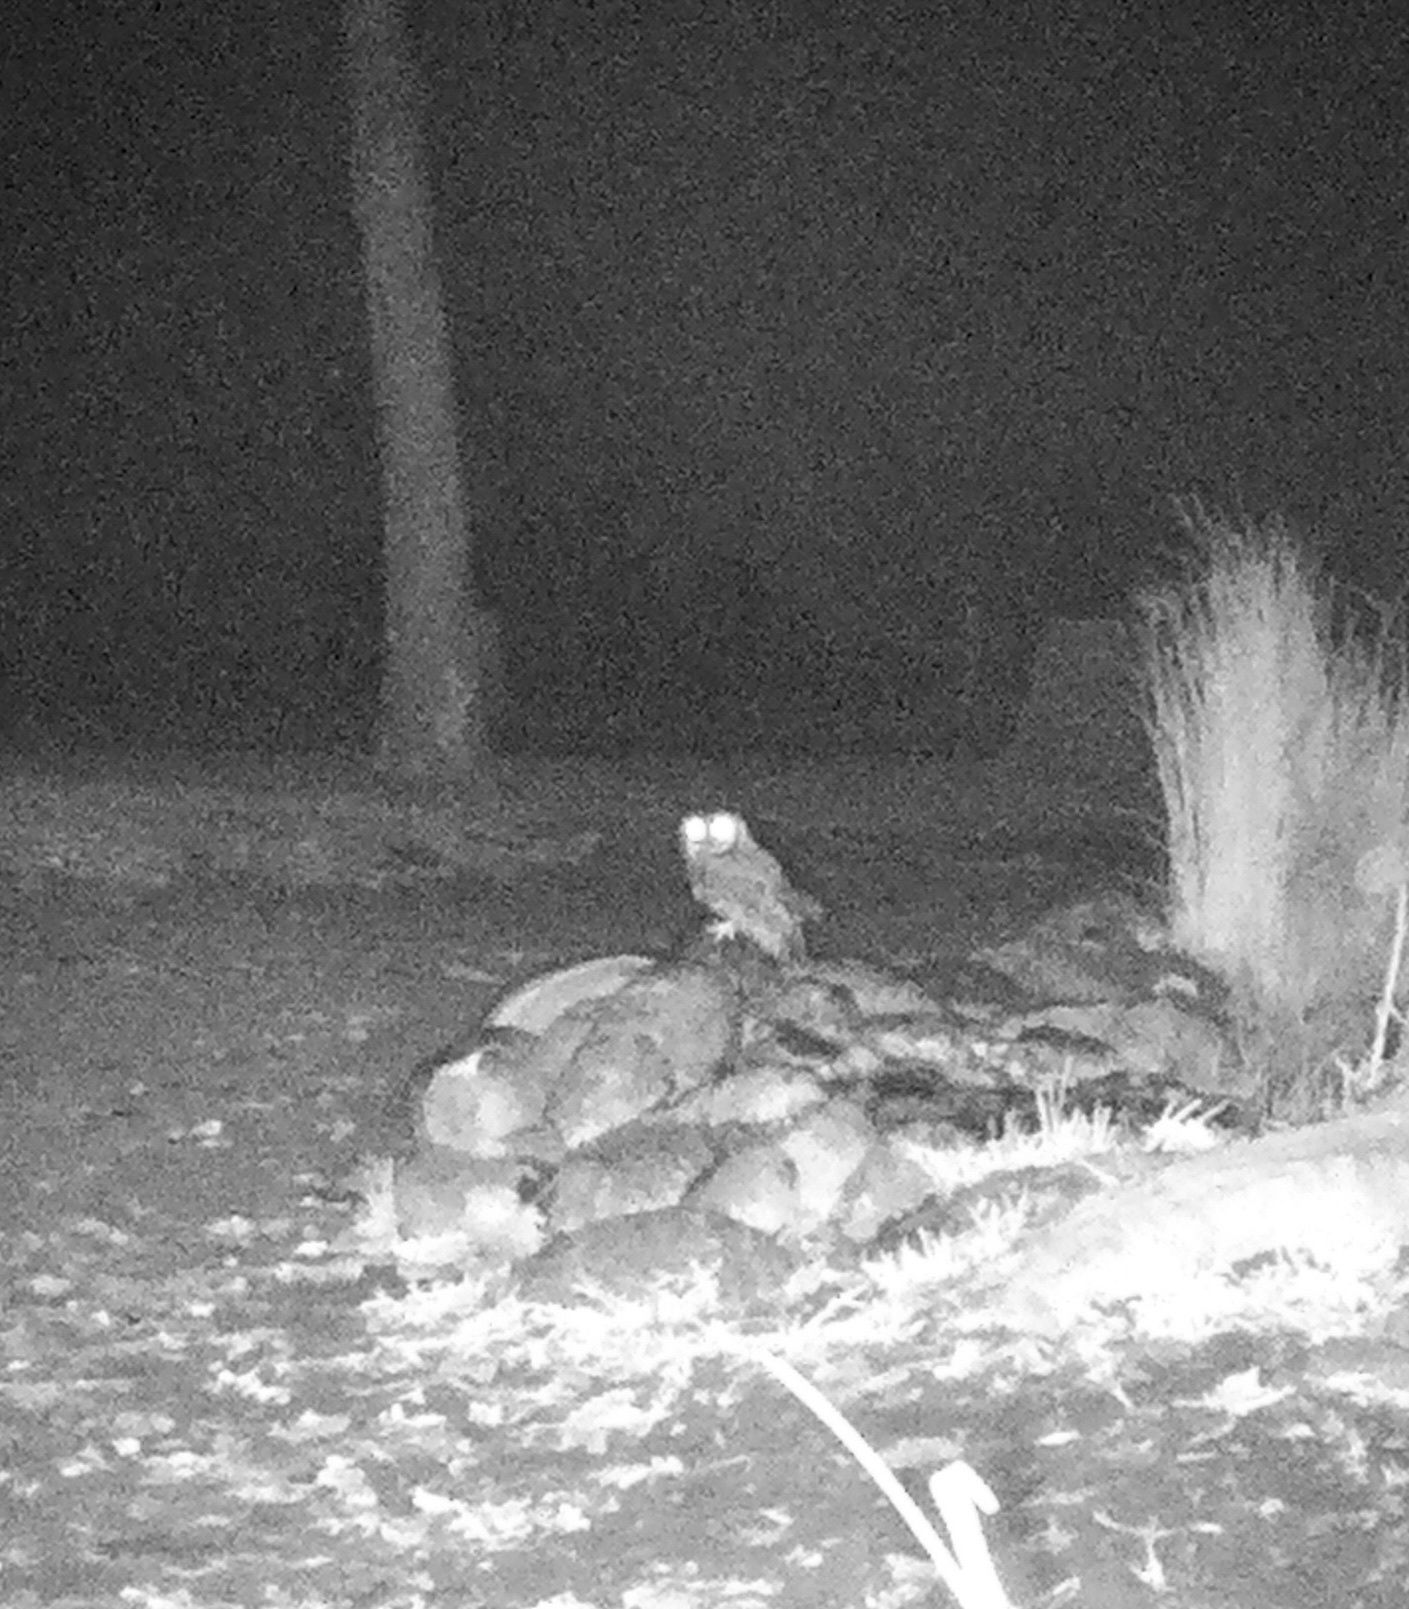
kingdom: Animalia
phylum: Chordata
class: Aves
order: Strigiformes
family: Strigidae
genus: Megascops
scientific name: Megascops kennicottii
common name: Western screech-owl
